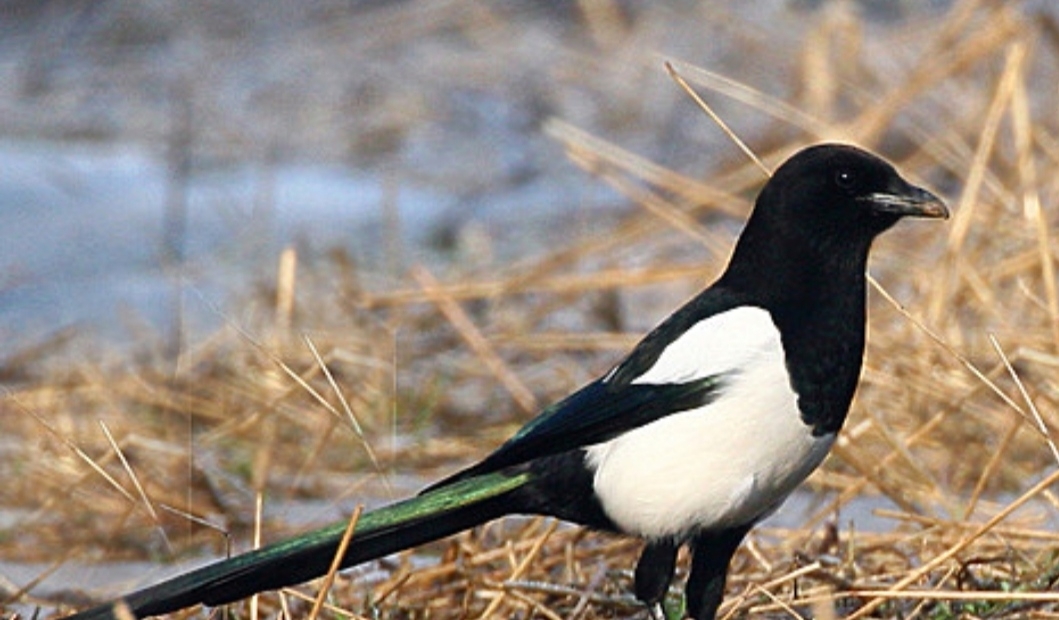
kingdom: Animalia
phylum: Chordata
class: Aves
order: Passeriformes
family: Corvidae
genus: Pica
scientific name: Pica pica
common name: Eurasian magpie
